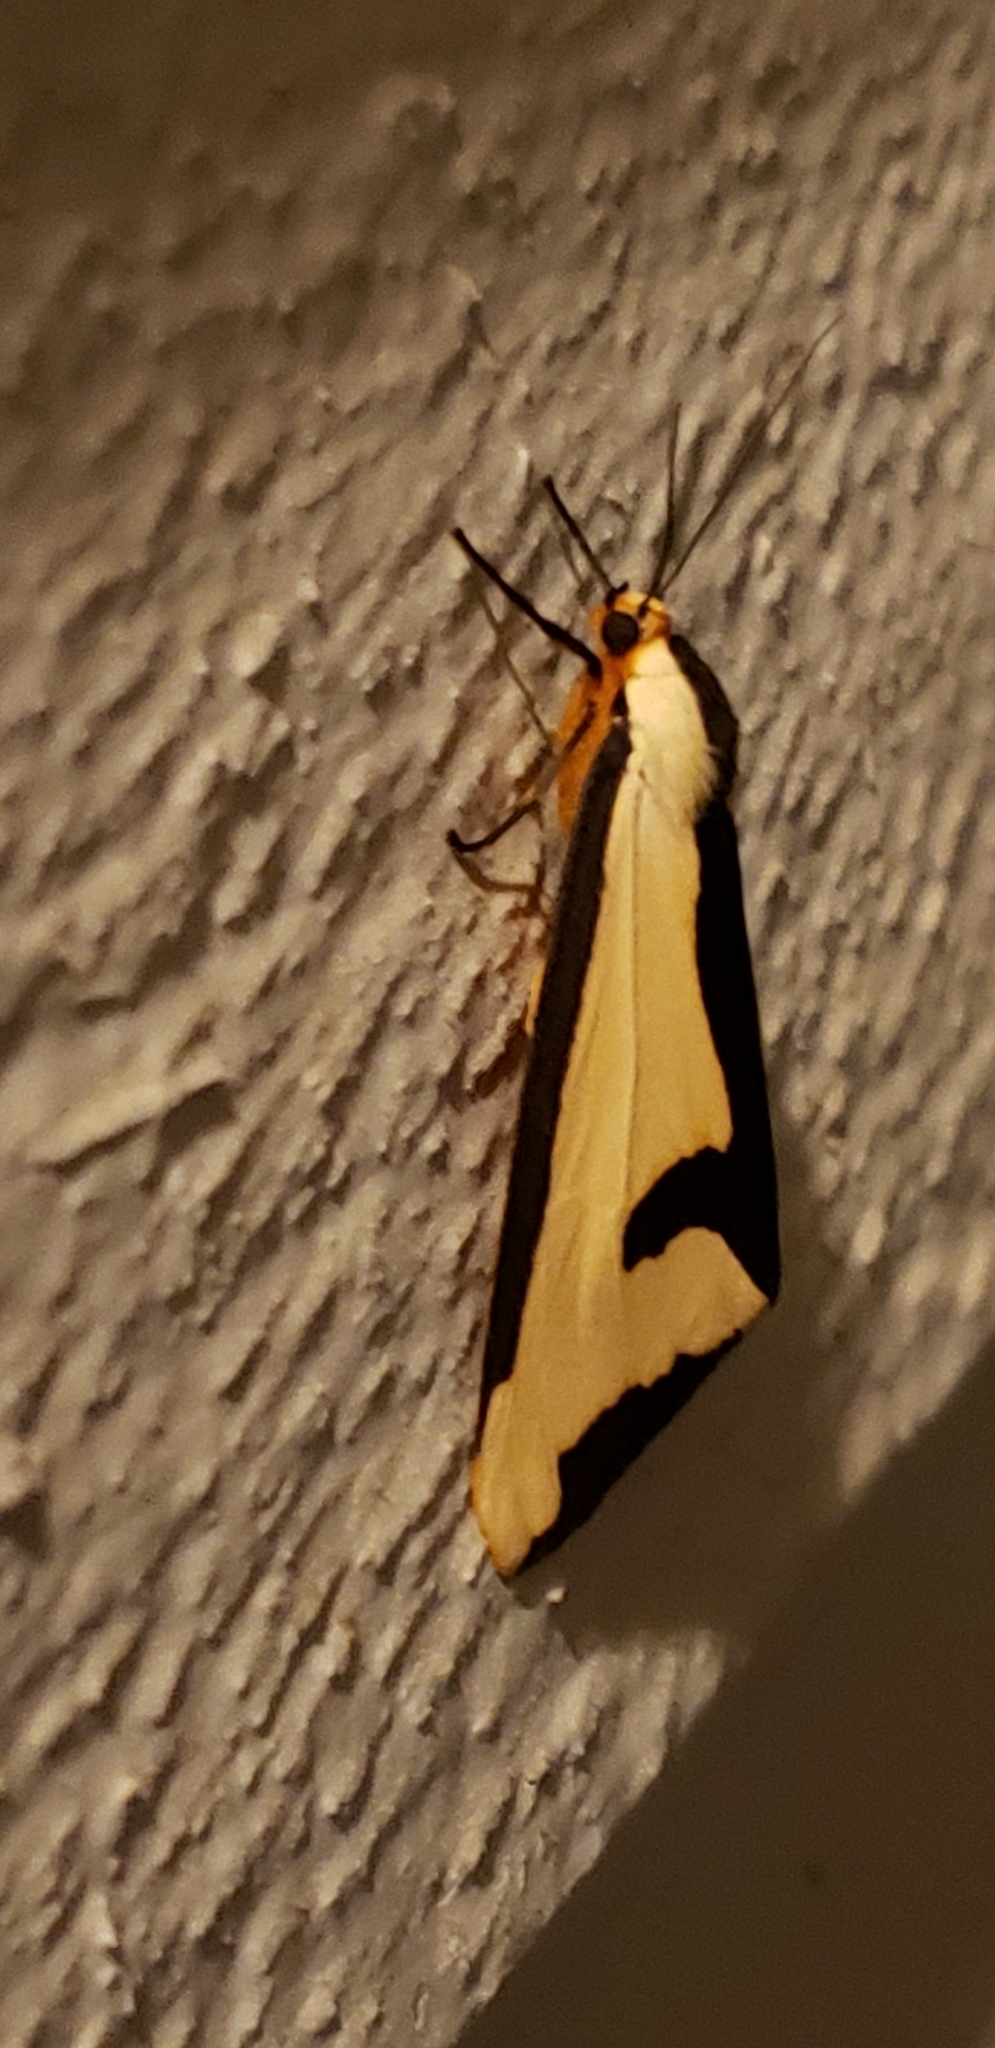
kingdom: Animalia
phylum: Arthropoda
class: Insecta
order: Lepidoptera
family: Erebidae
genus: Haploa
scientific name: Haploa clymene
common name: Clymene moth
